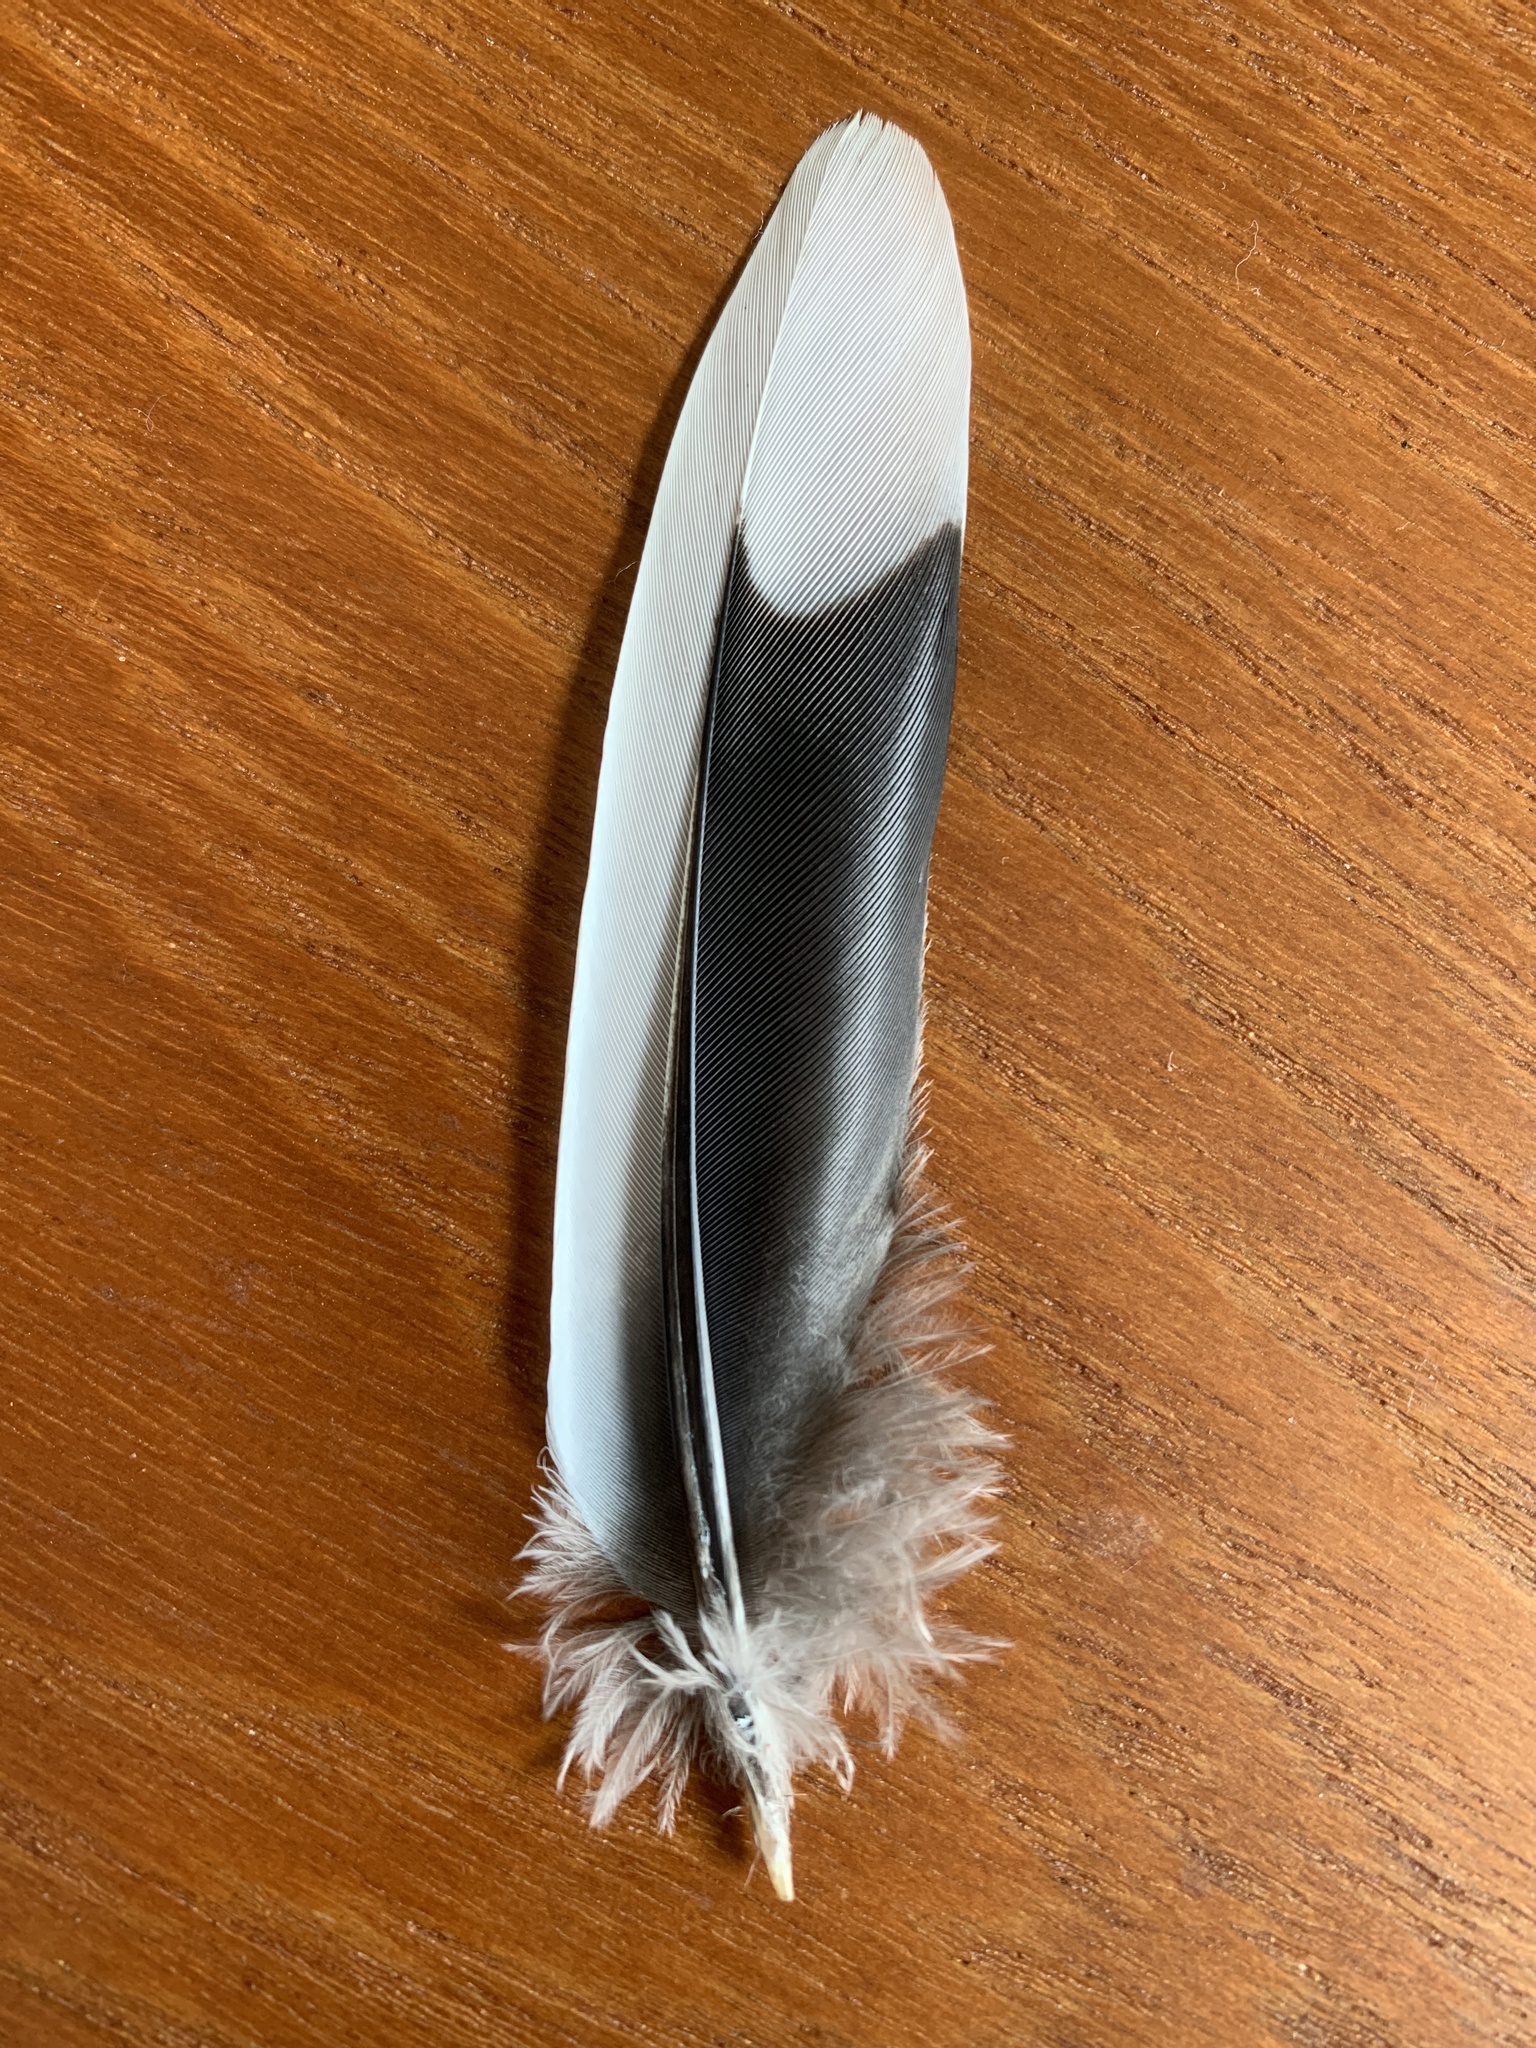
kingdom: Animalia
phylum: Chordata
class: Aves
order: Columbiformes
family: Columbidae
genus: Zenaida
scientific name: Zenaida macroura
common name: Mourning dove
